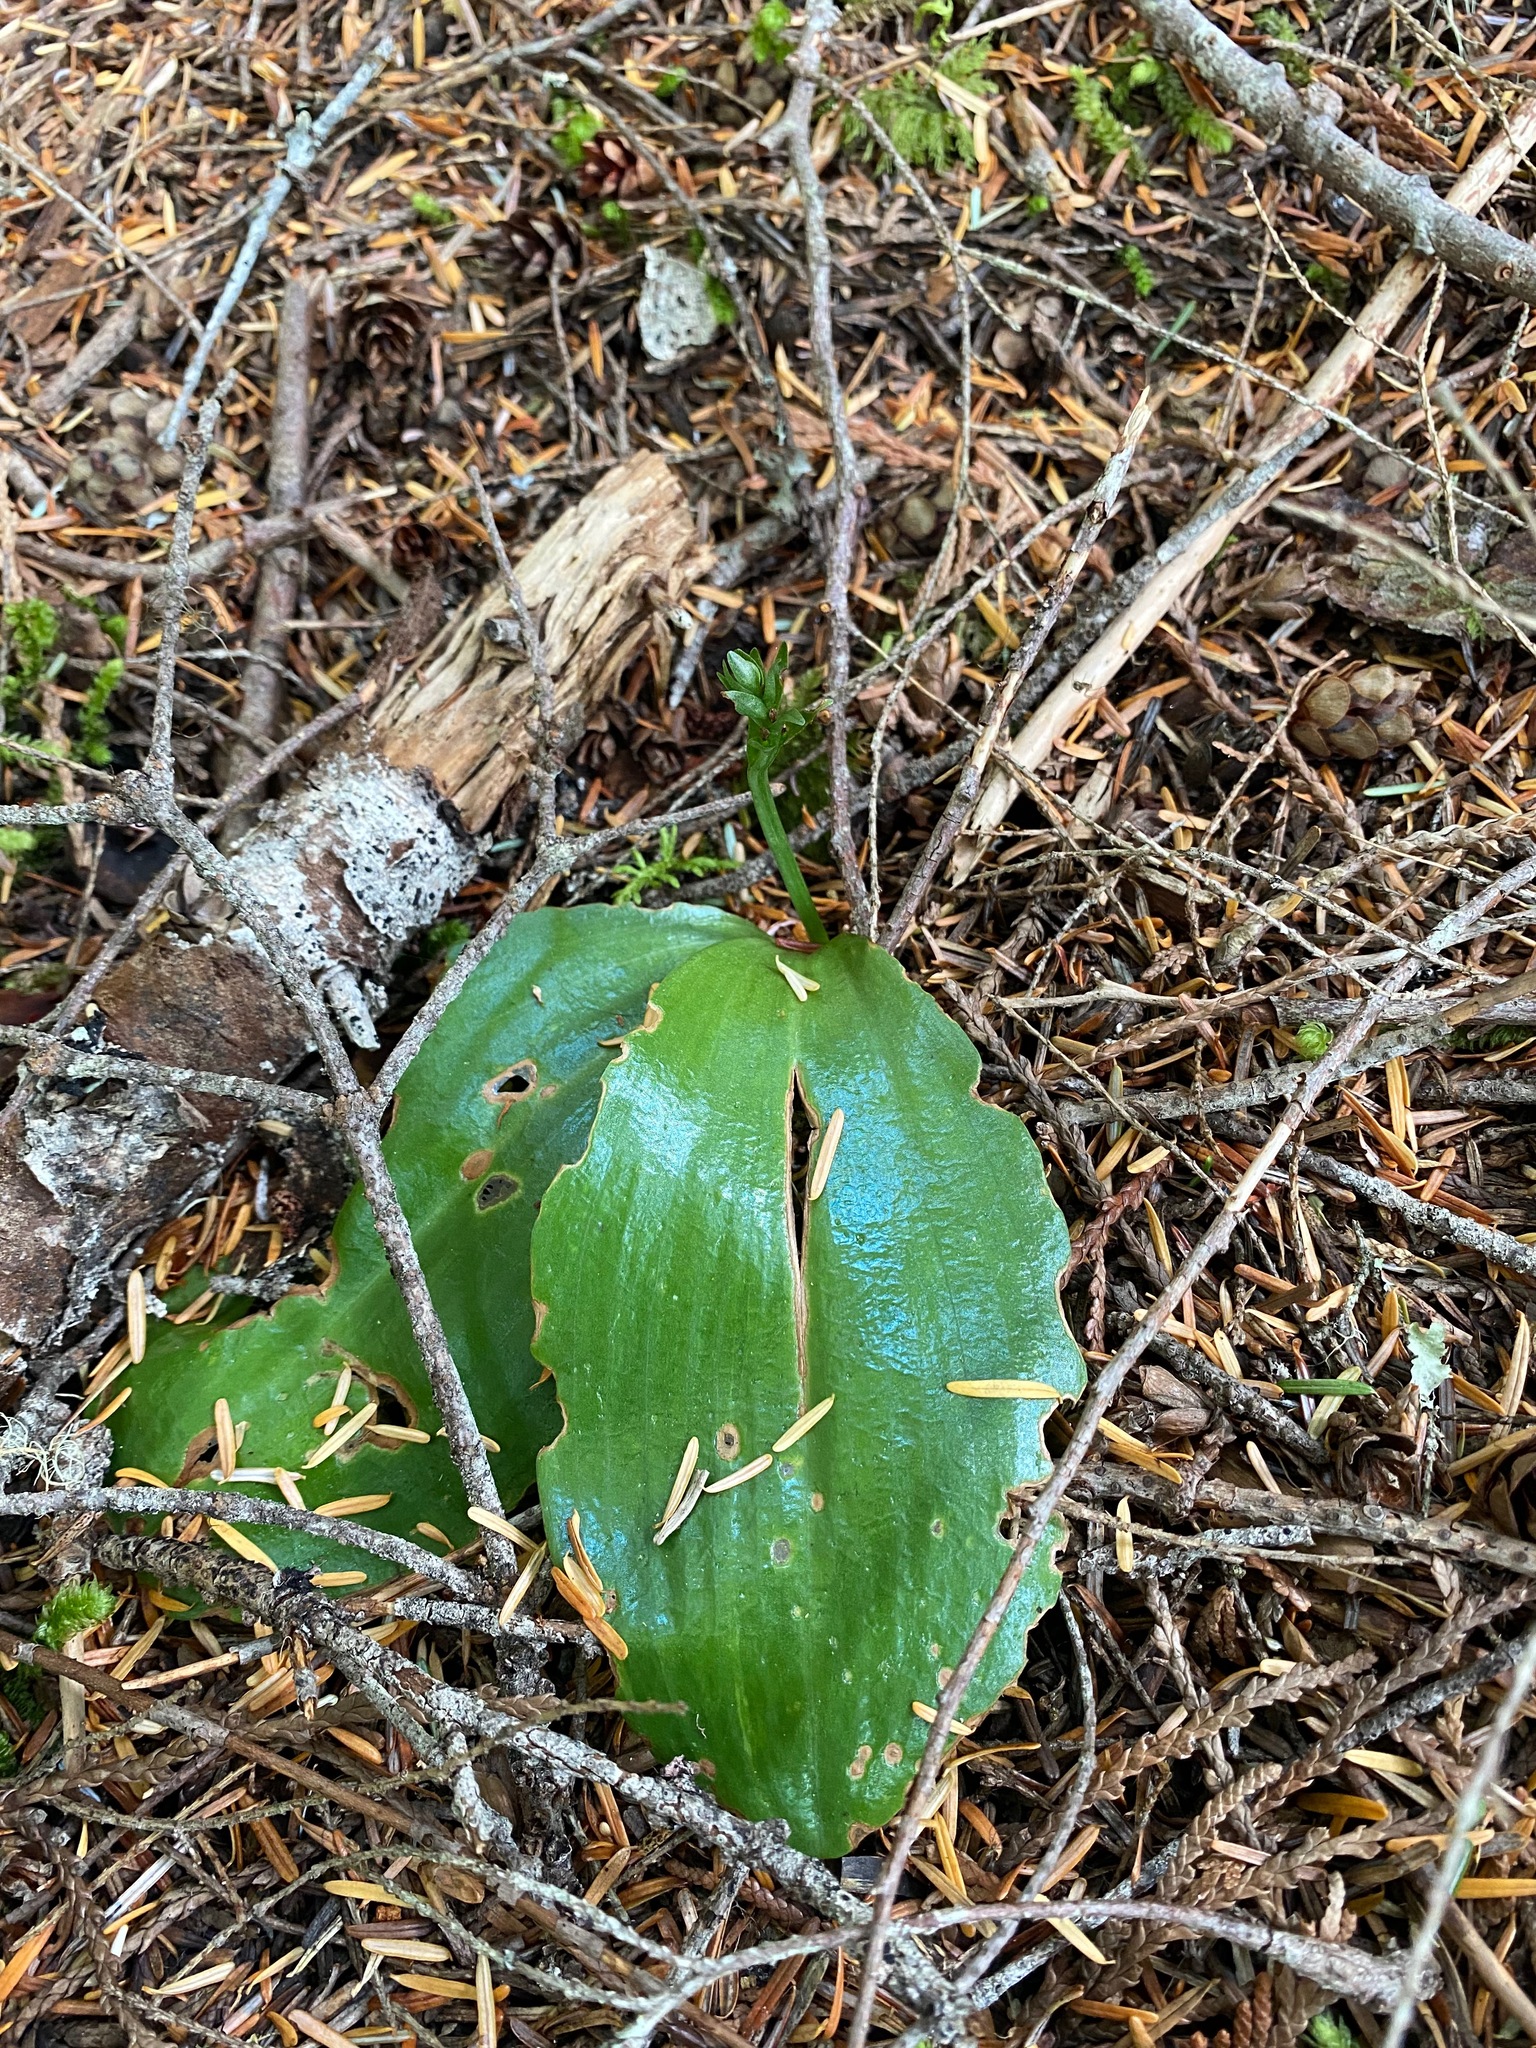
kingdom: Plantae
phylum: Tracheophyta
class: Liliopsida
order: Asparagales
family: Orchidaceae
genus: Platanthera
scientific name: Platanthera orbiculata
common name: Large round-leaved orchid
